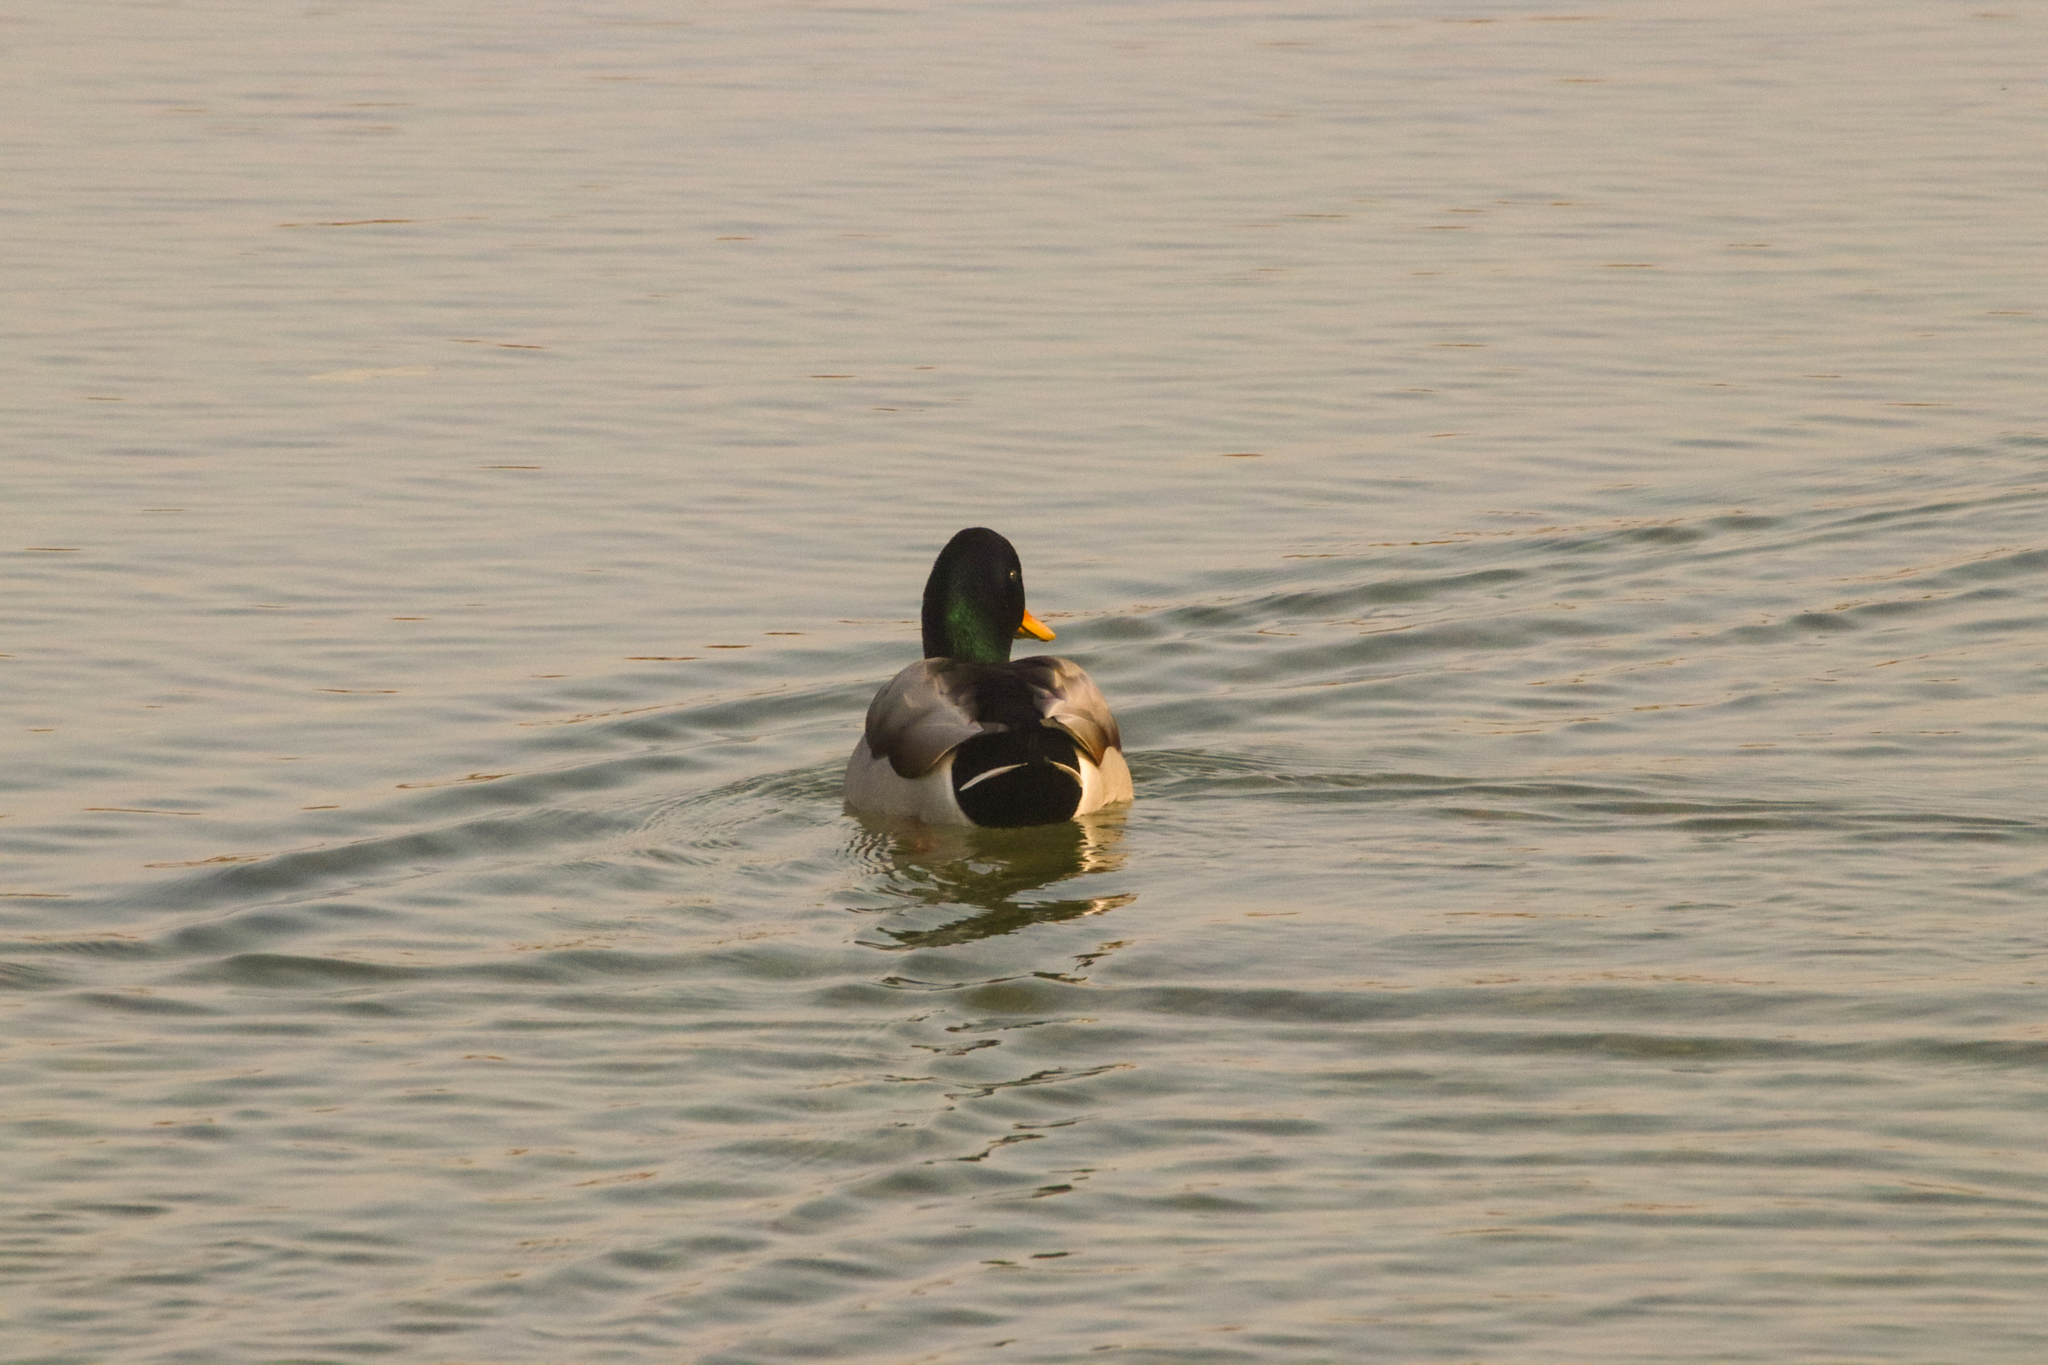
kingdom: Animalia
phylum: Chordata
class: Aves
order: Anseriformes
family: Anatidae
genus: Anas
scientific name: Anas platyrhynchos
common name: Mallard
